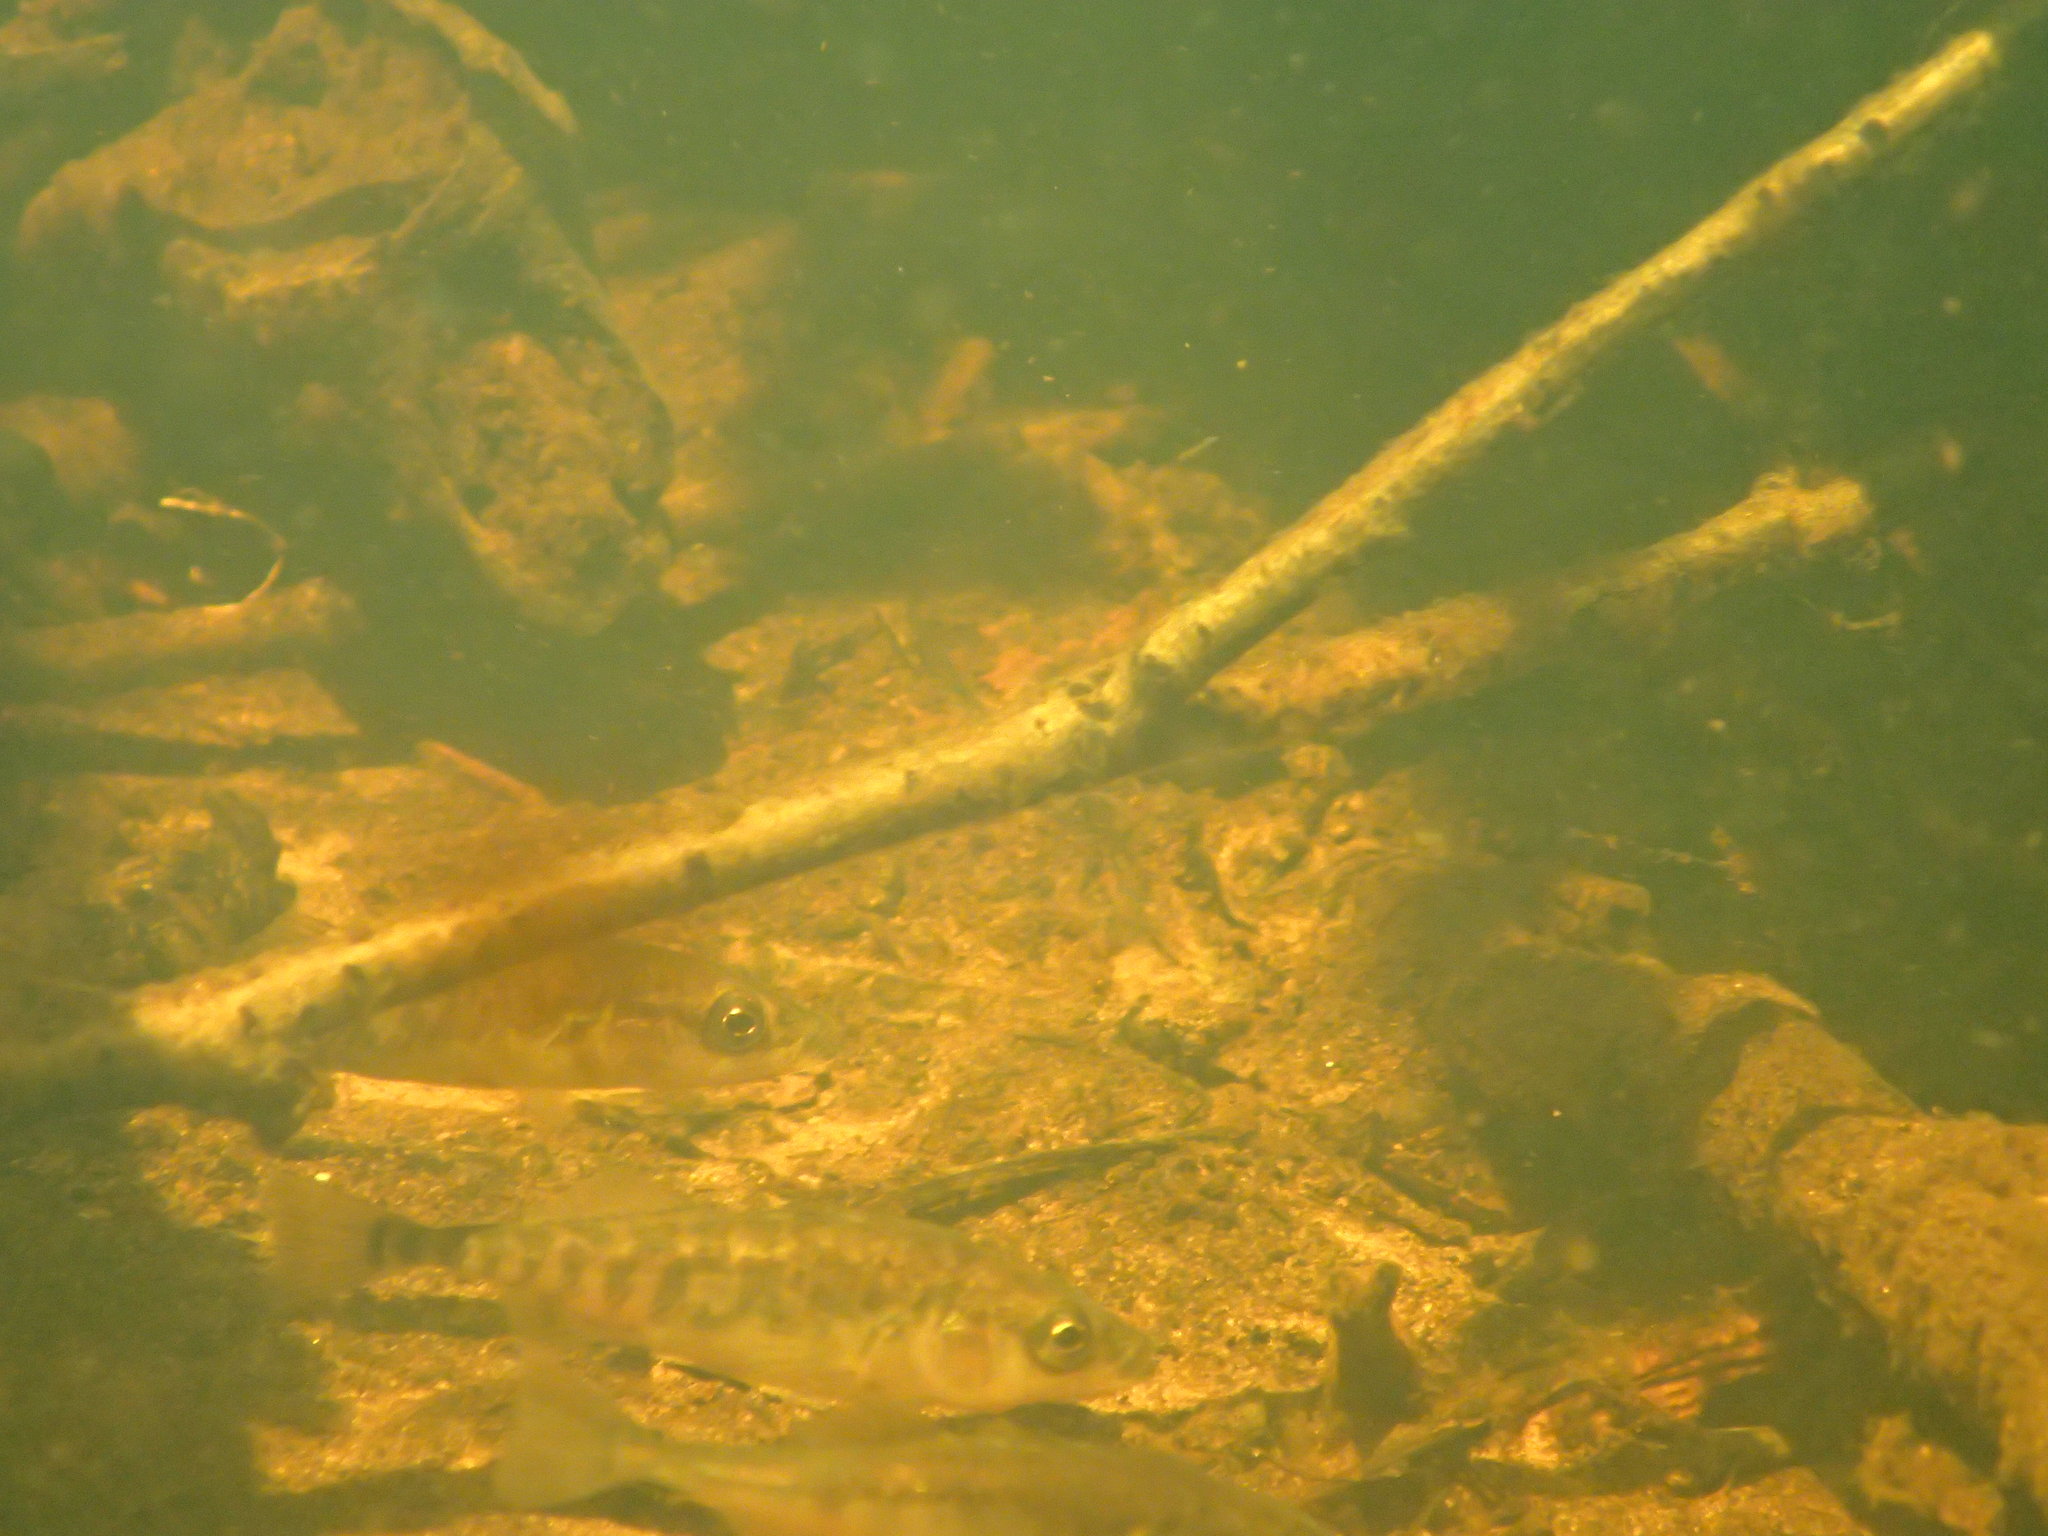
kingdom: Animalia
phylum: Chordata
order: Gasterosteiformes
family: Gasterosteidae
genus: Gasterosteus
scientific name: Gasterosteus aculeatus
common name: Three-spined stickleback
